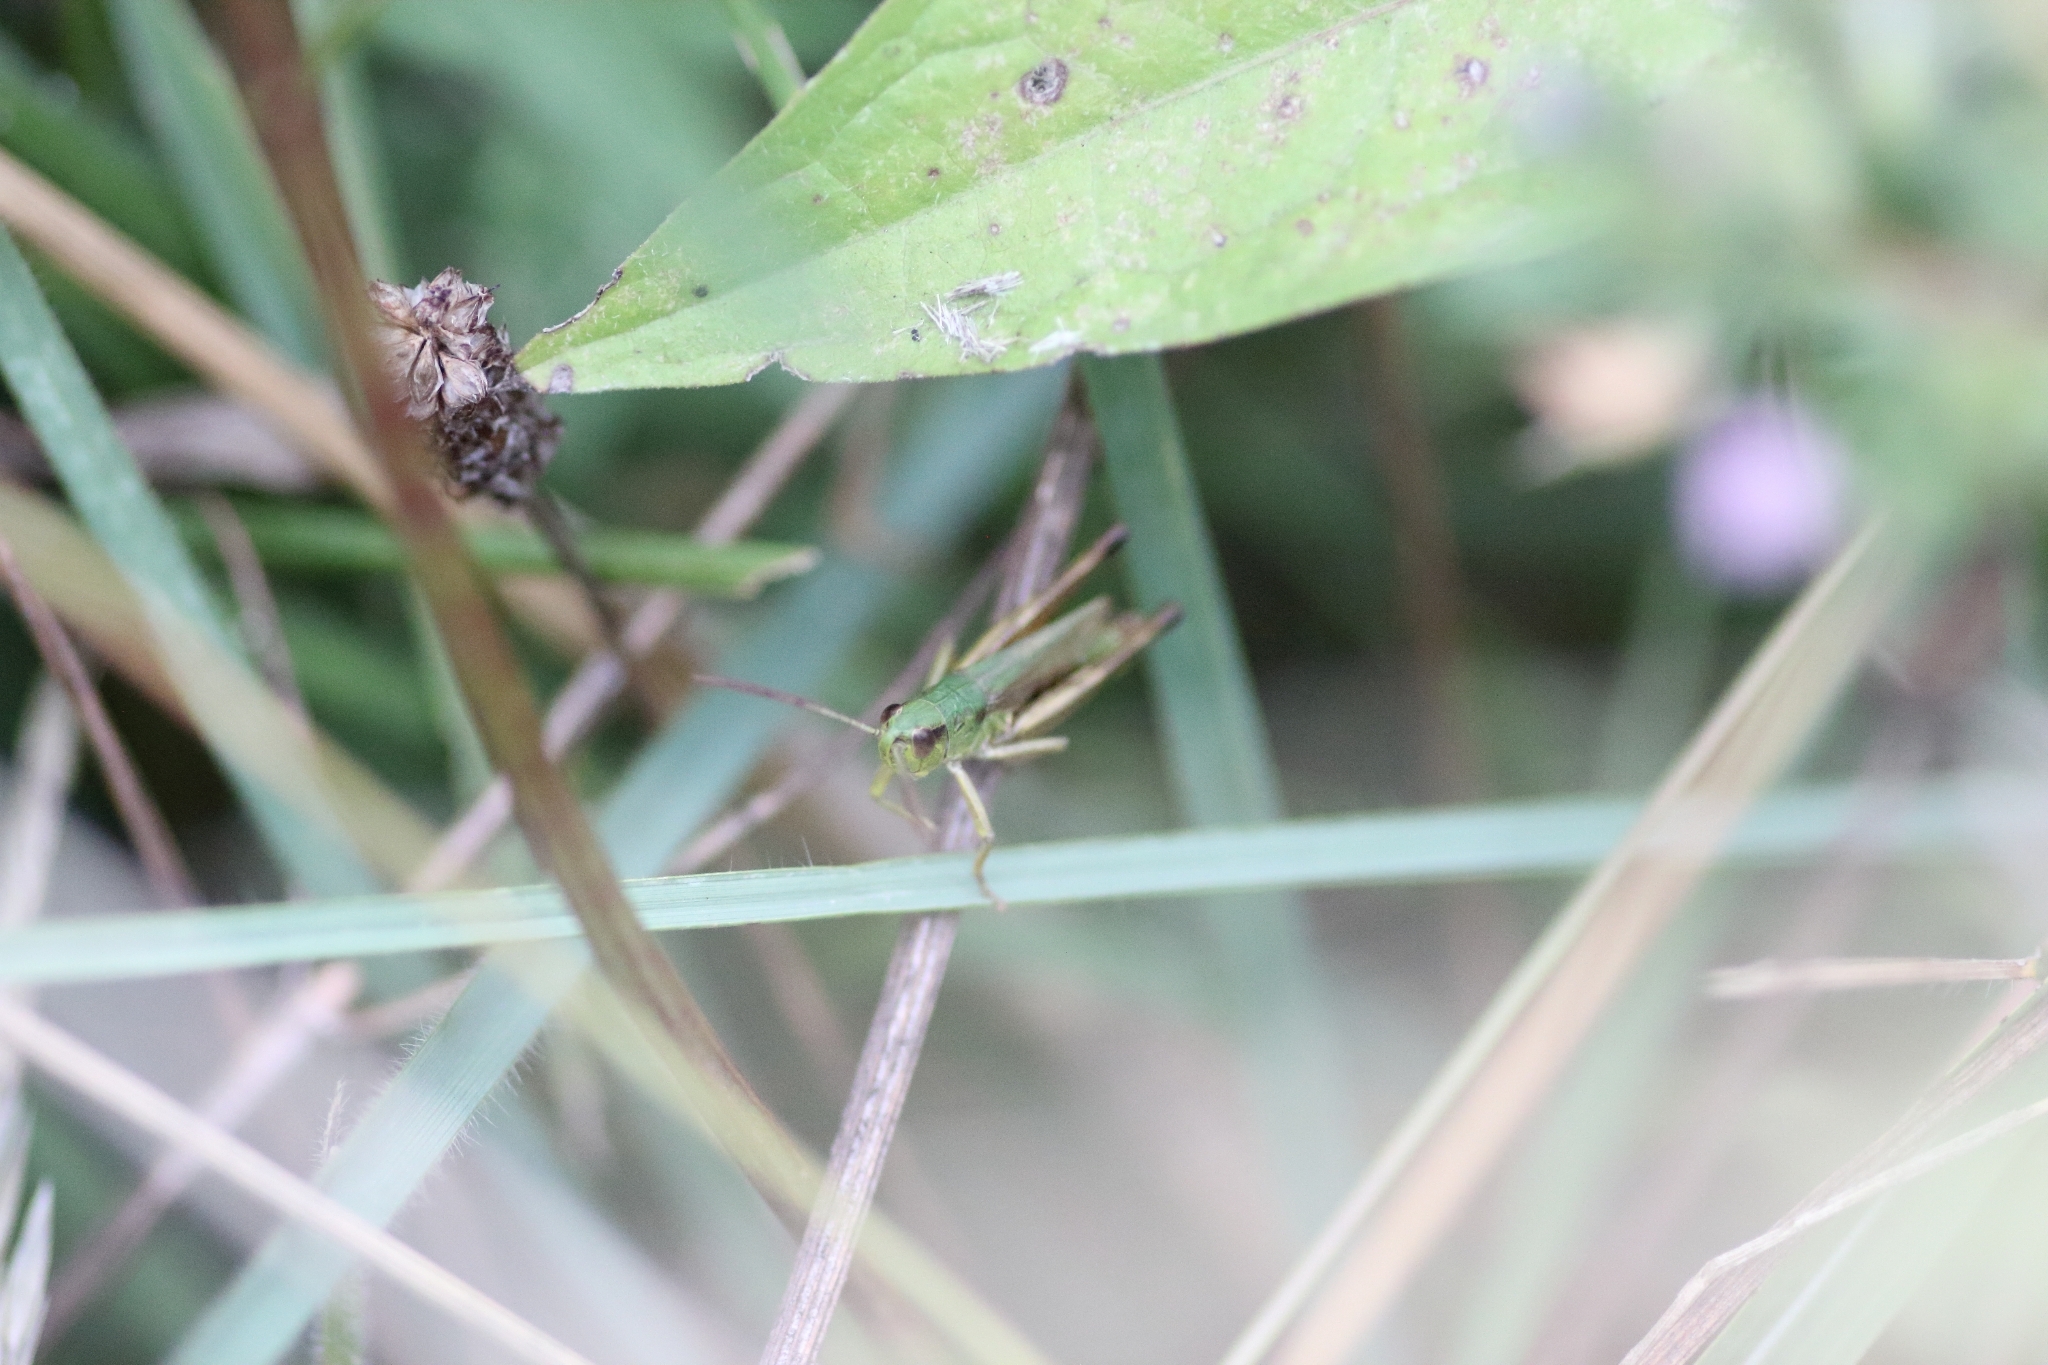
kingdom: Animalia
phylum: Arthropoda
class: Insecta
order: Orthoptera
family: Acrididae
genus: Pseudochorthippus
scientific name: Pseudochorthippus parallelus
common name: Meadow grasshopper
